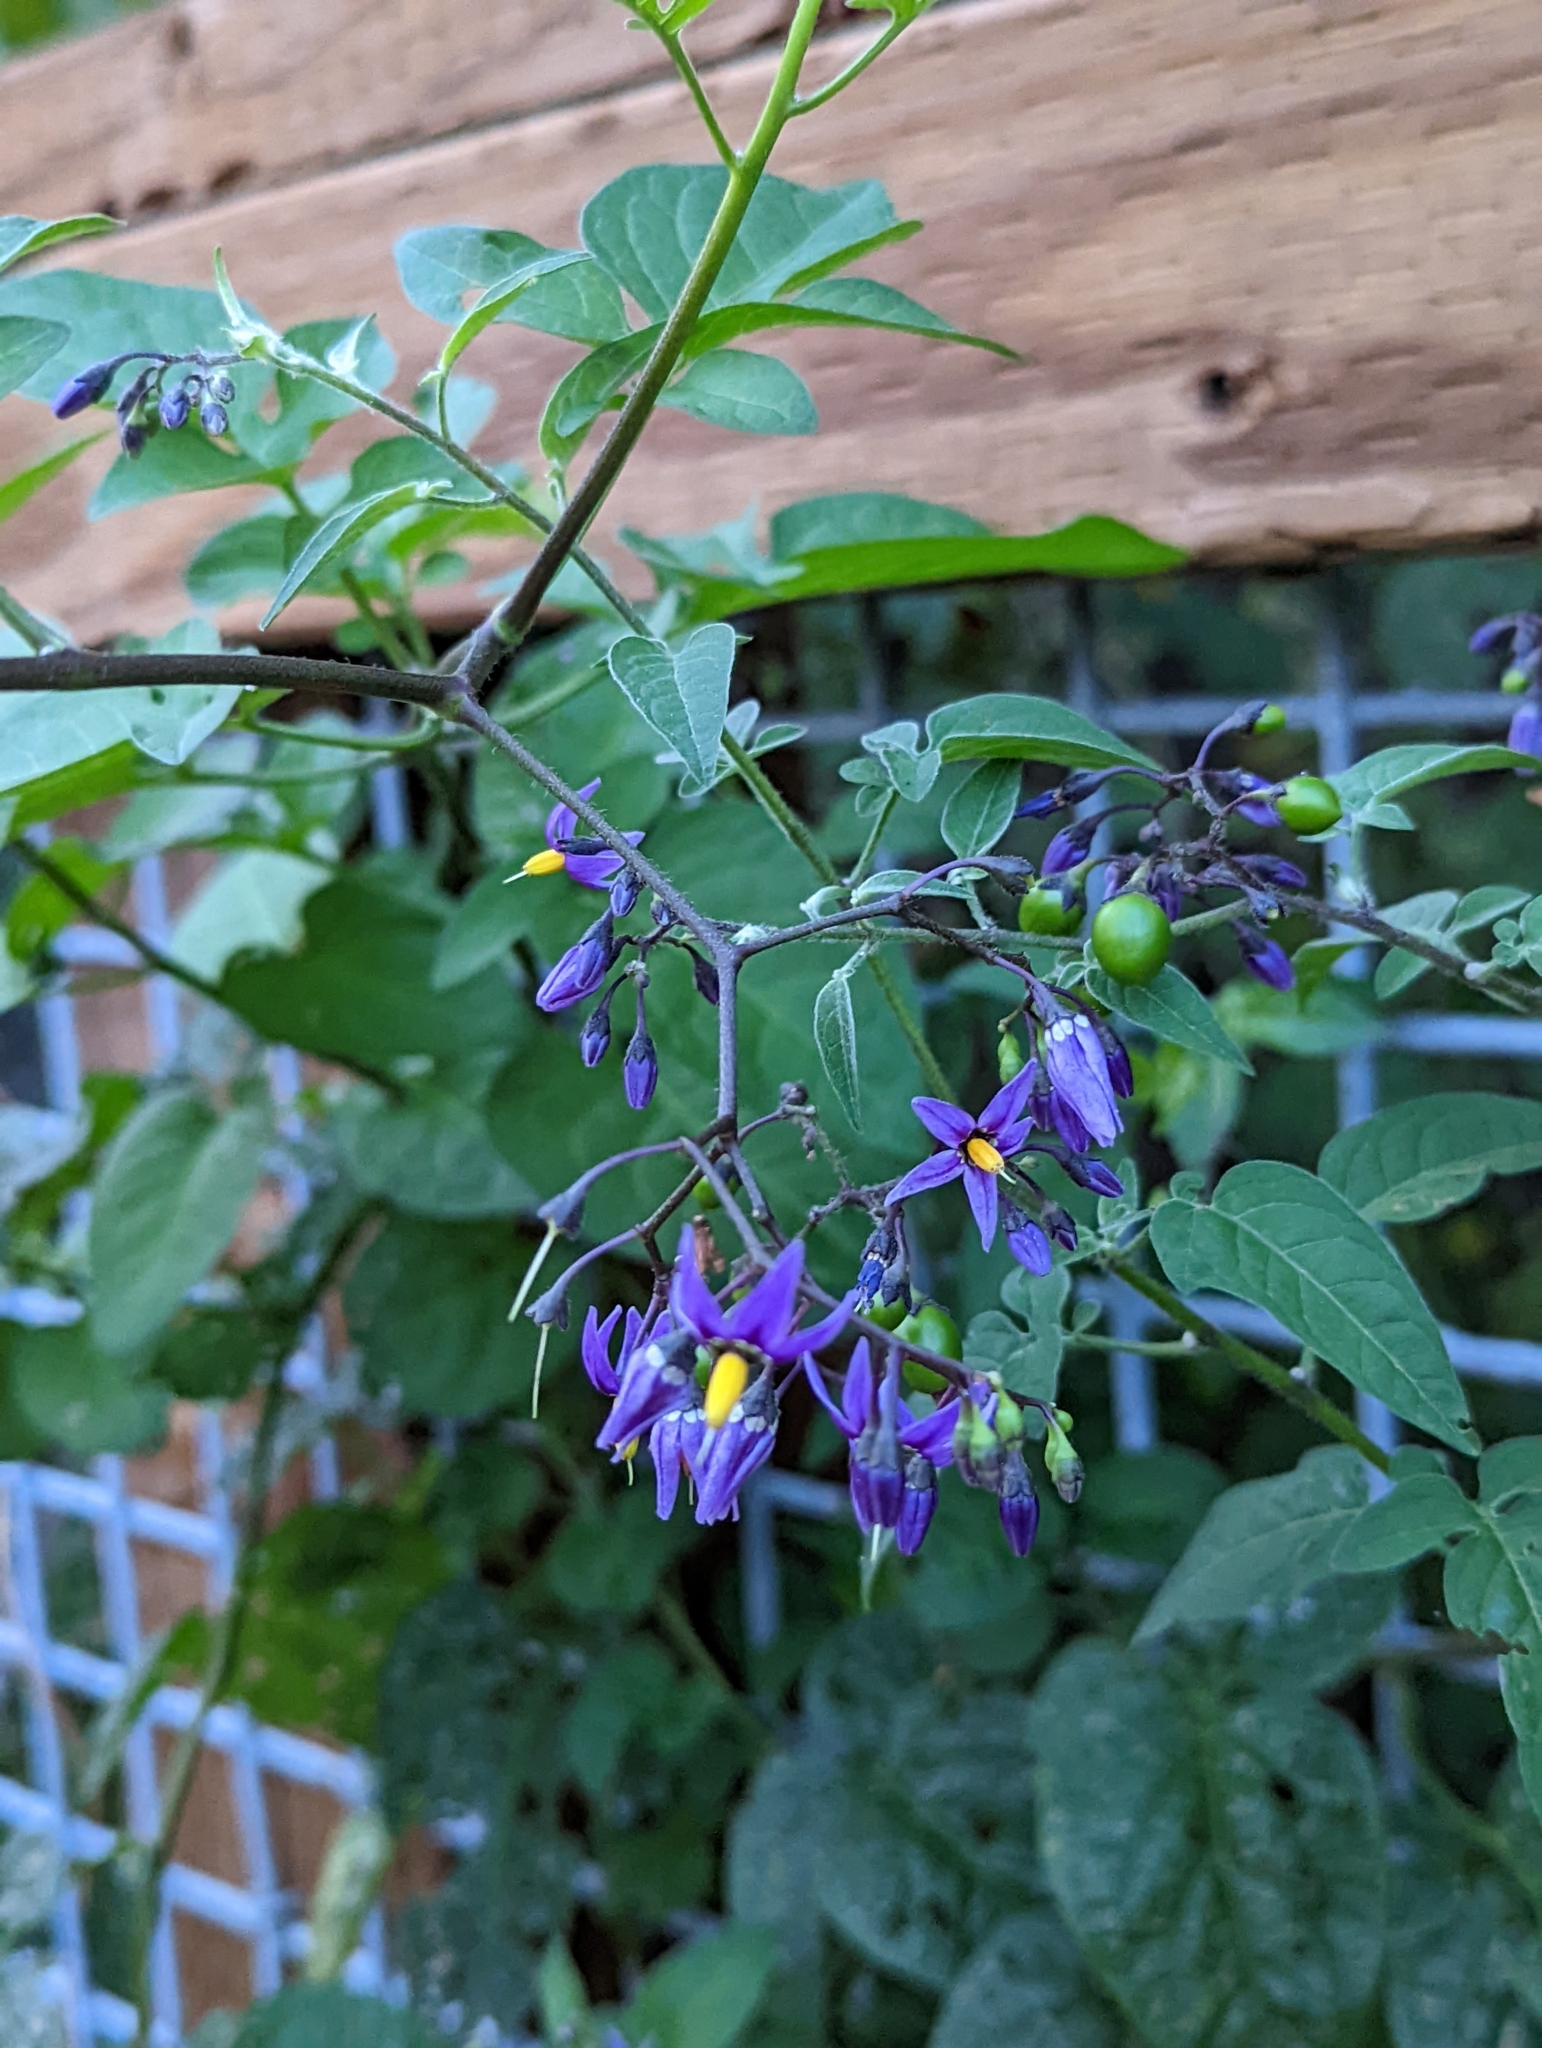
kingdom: Plantae
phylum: Tracheophyta
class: Magnoliopsida
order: Solanales
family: Solanaceae
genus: Solanum
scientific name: Solanum dulcamara
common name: Climbing nightshade
